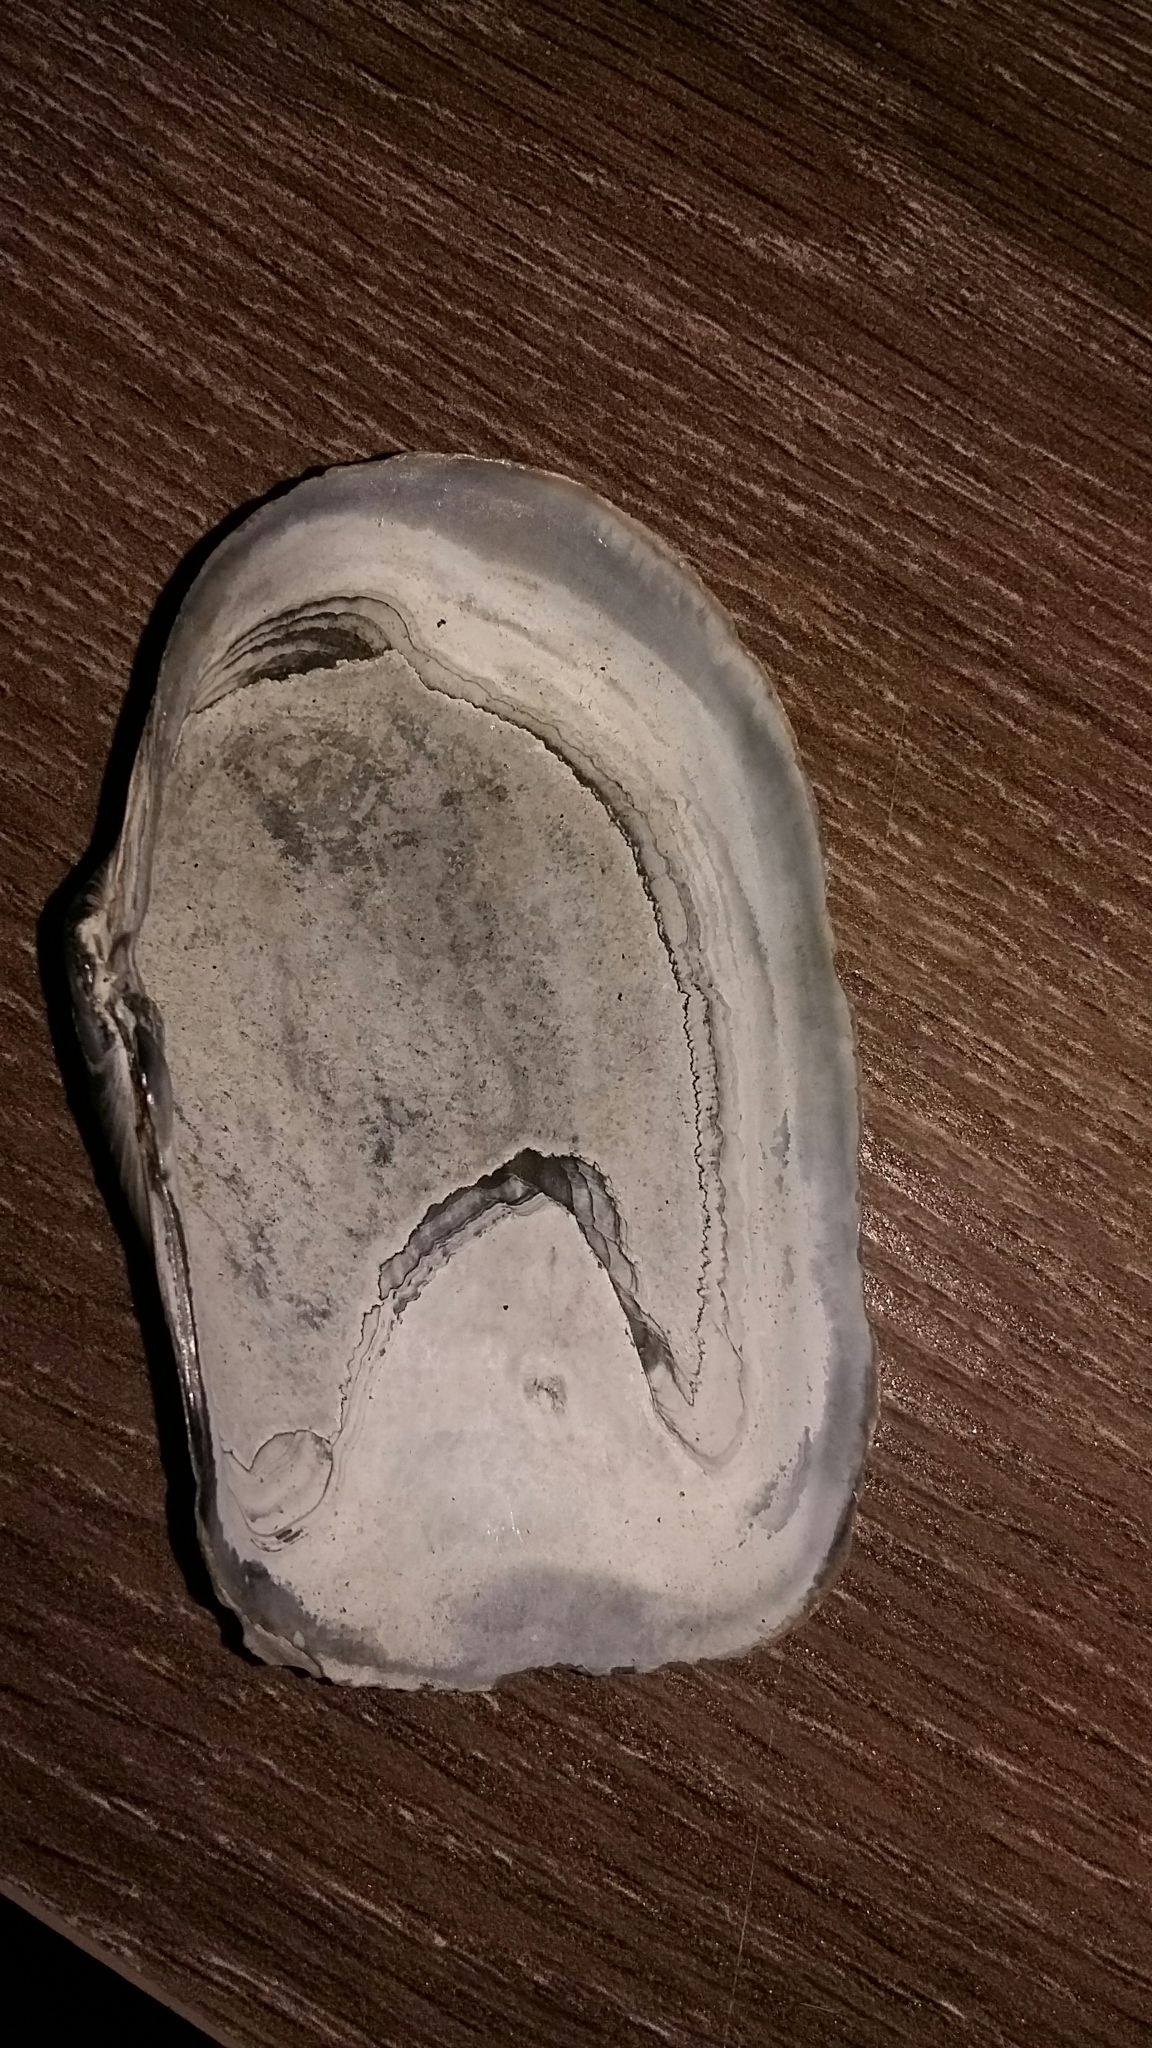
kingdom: Animalia
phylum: Mollusca
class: Bivalvia
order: Adapedonta
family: Hiatellidae
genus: Panopea
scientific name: Panopea zelandica
